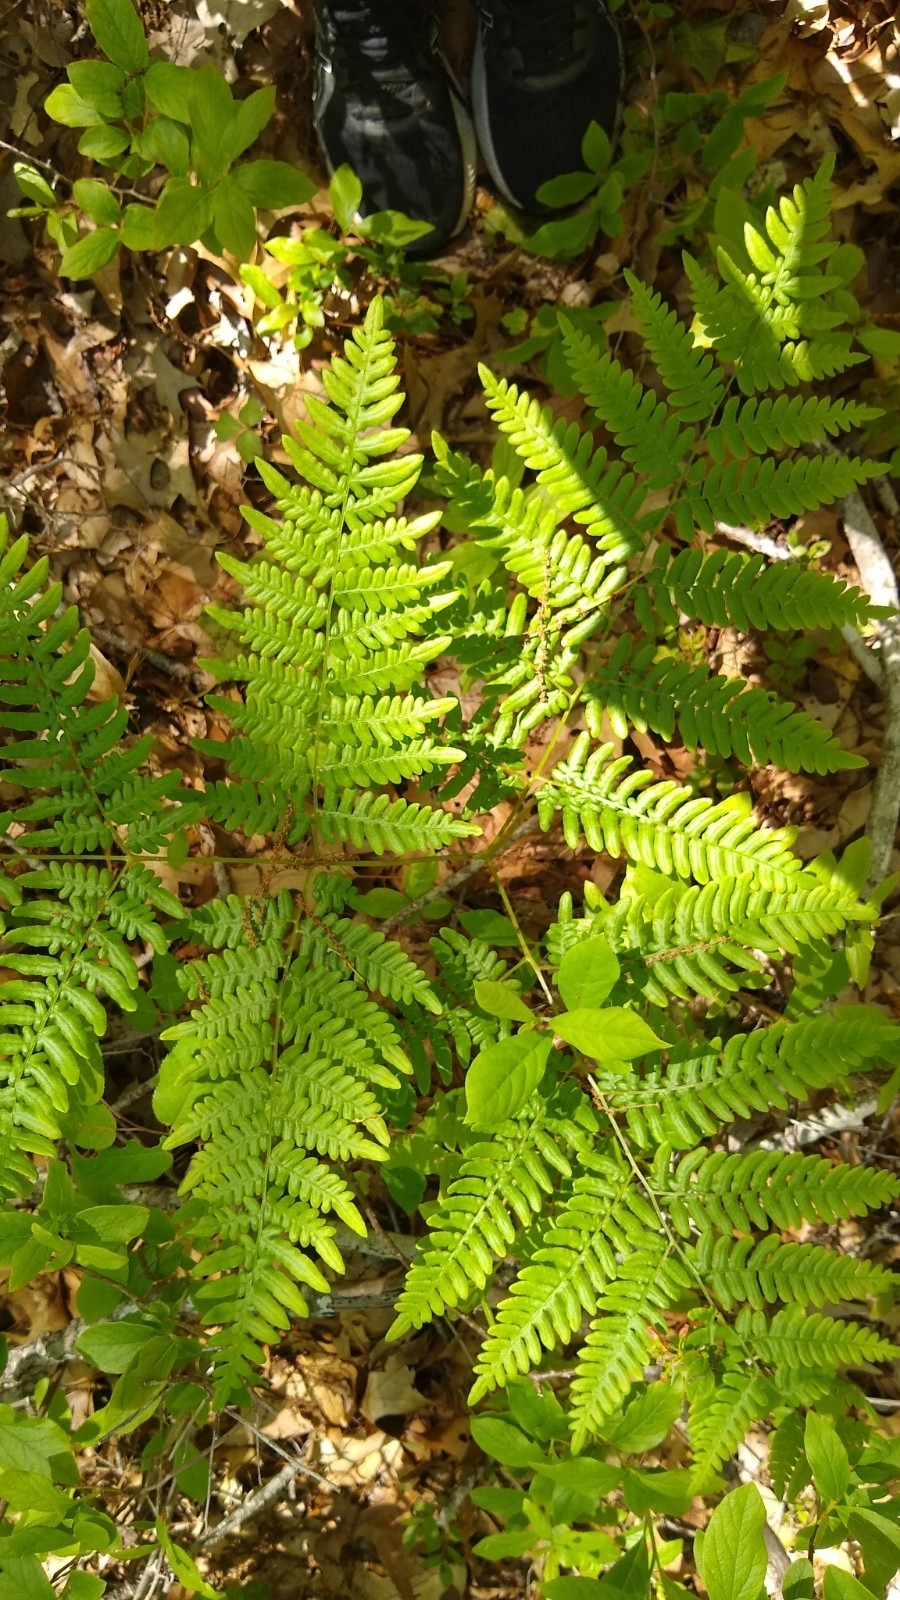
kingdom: Plantae
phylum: Tracheophyta
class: Polypodiopsida
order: Polypodiales
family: Dennstaedtiaceae
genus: Pteridium
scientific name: Pteridium aquilinum
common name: Bracken
